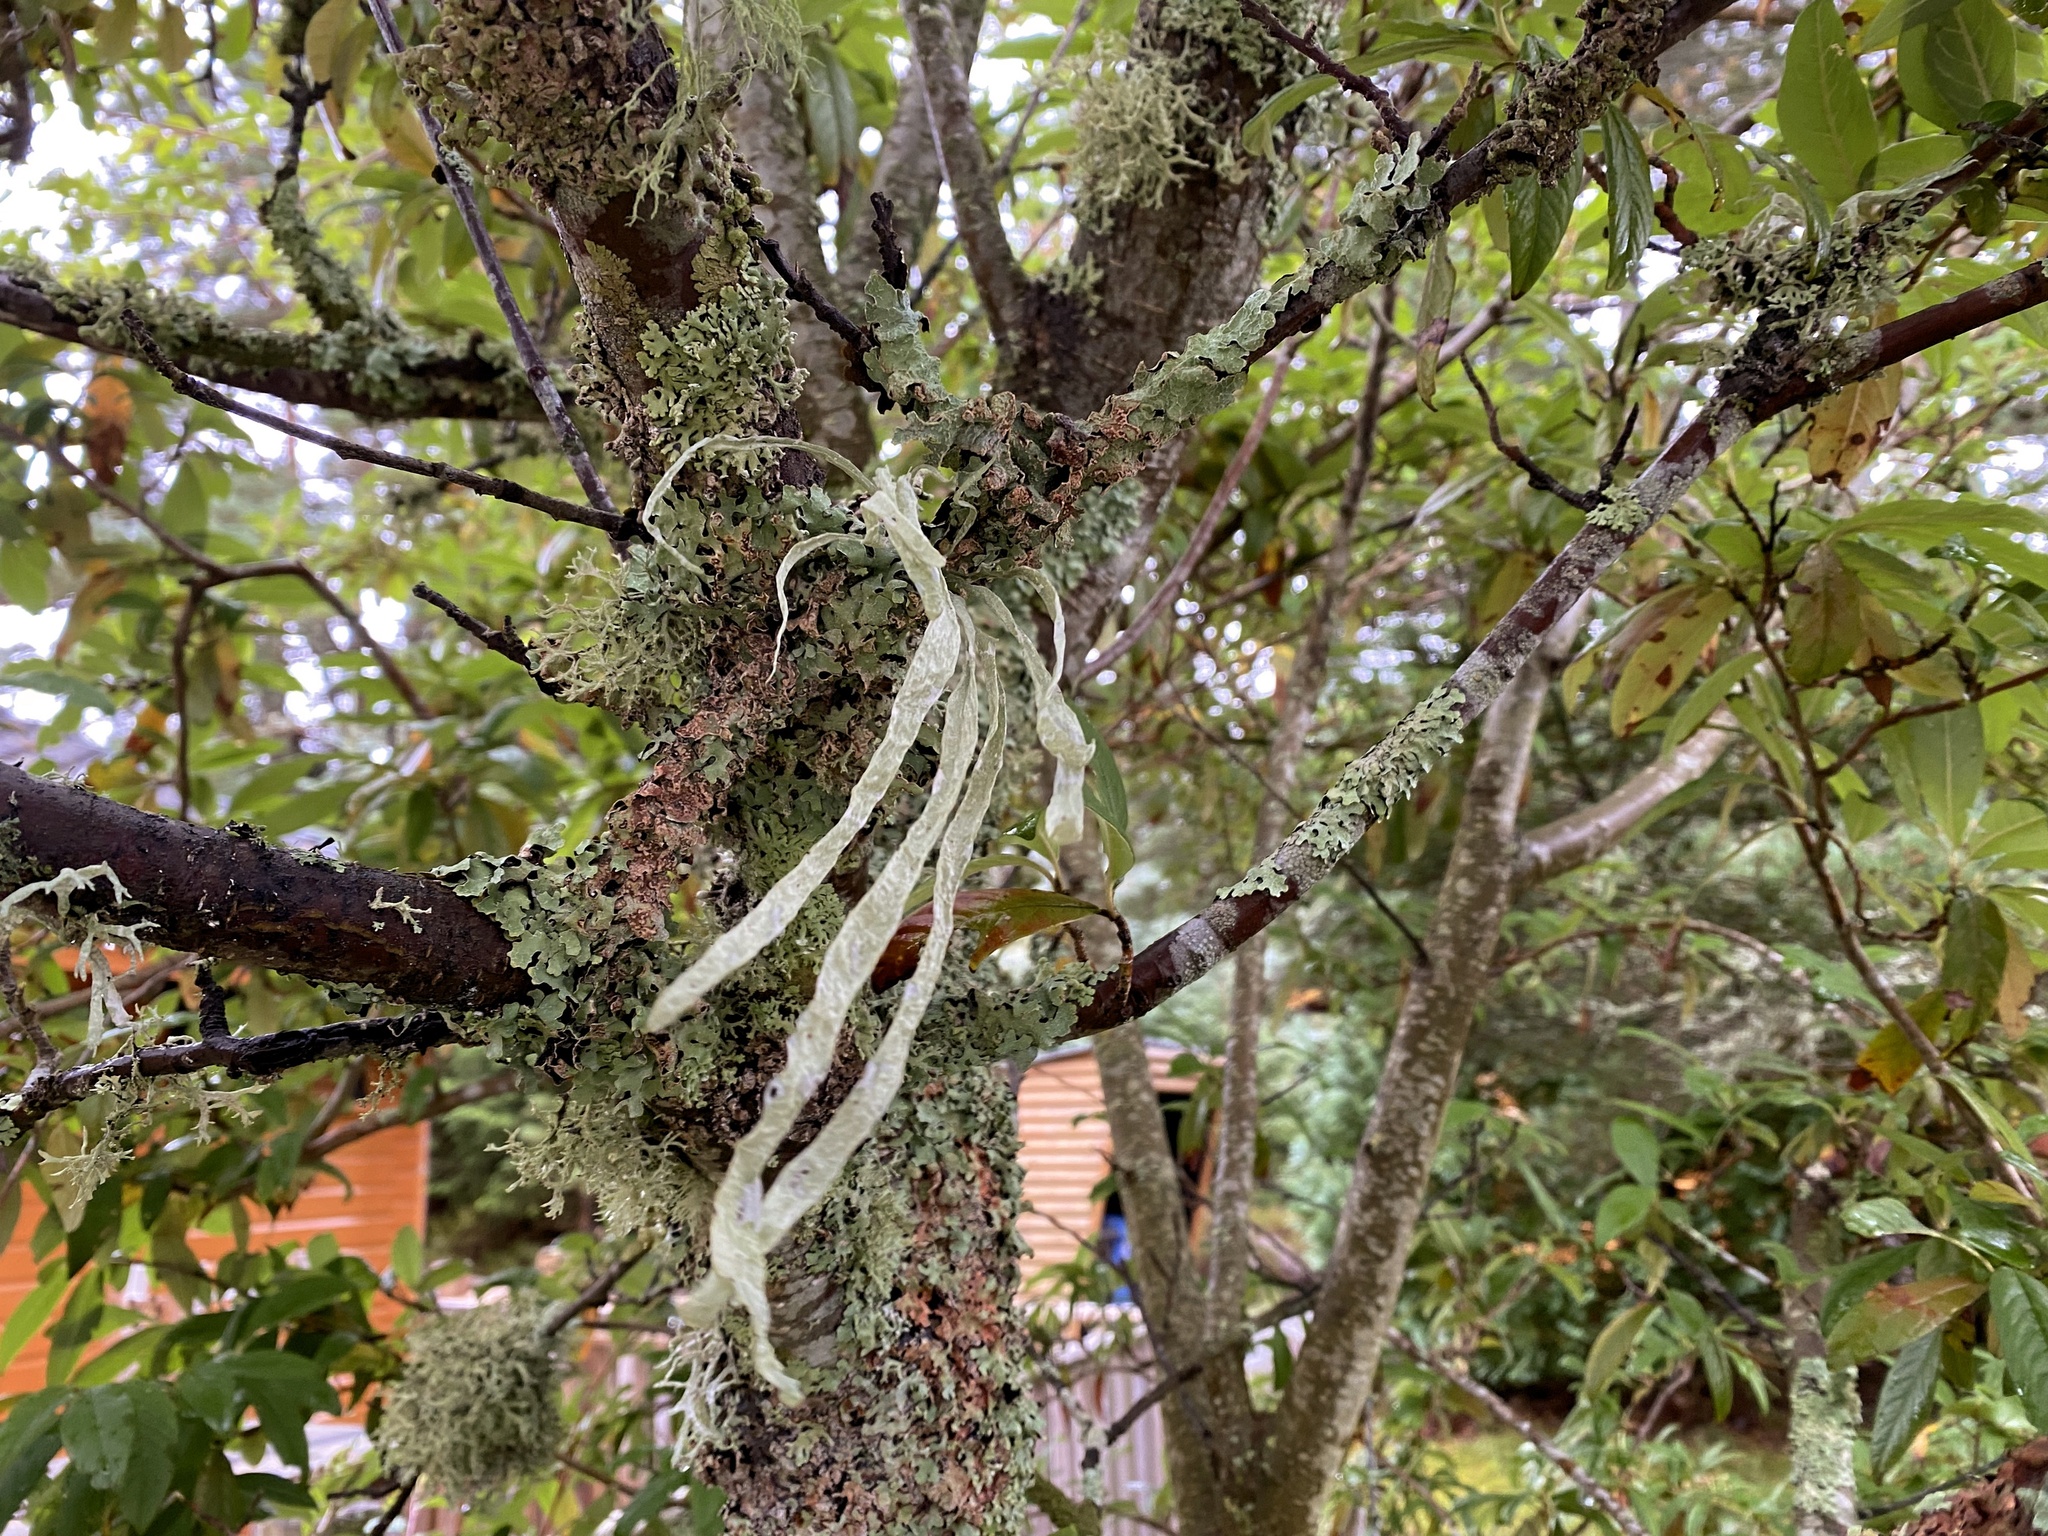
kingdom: Fungi
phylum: Ascomycota
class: Lecanoromycetes
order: Lecanorales
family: Ramalinaceae
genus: Ramalina
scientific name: Ramalina fraxinea
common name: Cartilage lichen
